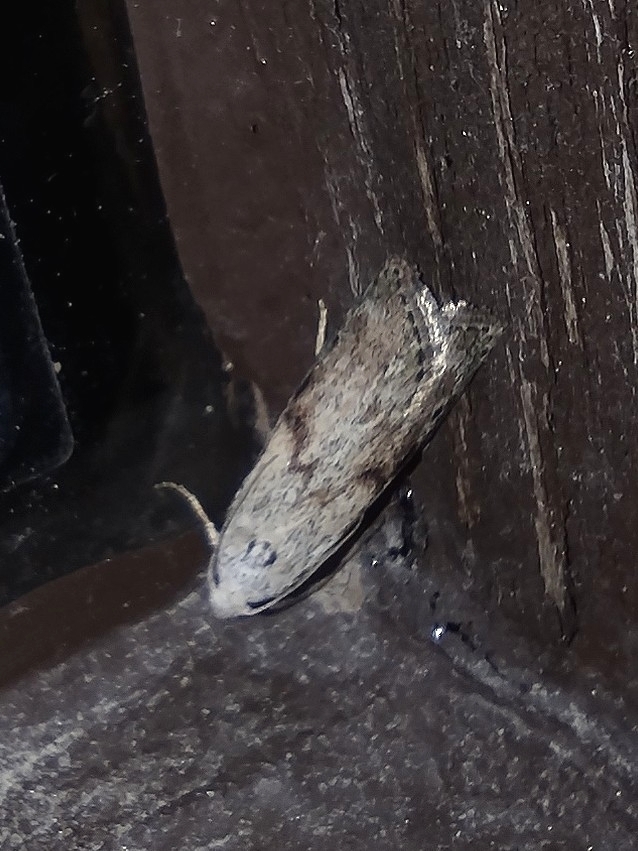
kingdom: Animalia
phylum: Arthropoda
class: Insecta
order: Lepidoptera
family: Pyralidae
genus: Aphomia
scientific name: Aphomia sociella
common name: Bee moth
